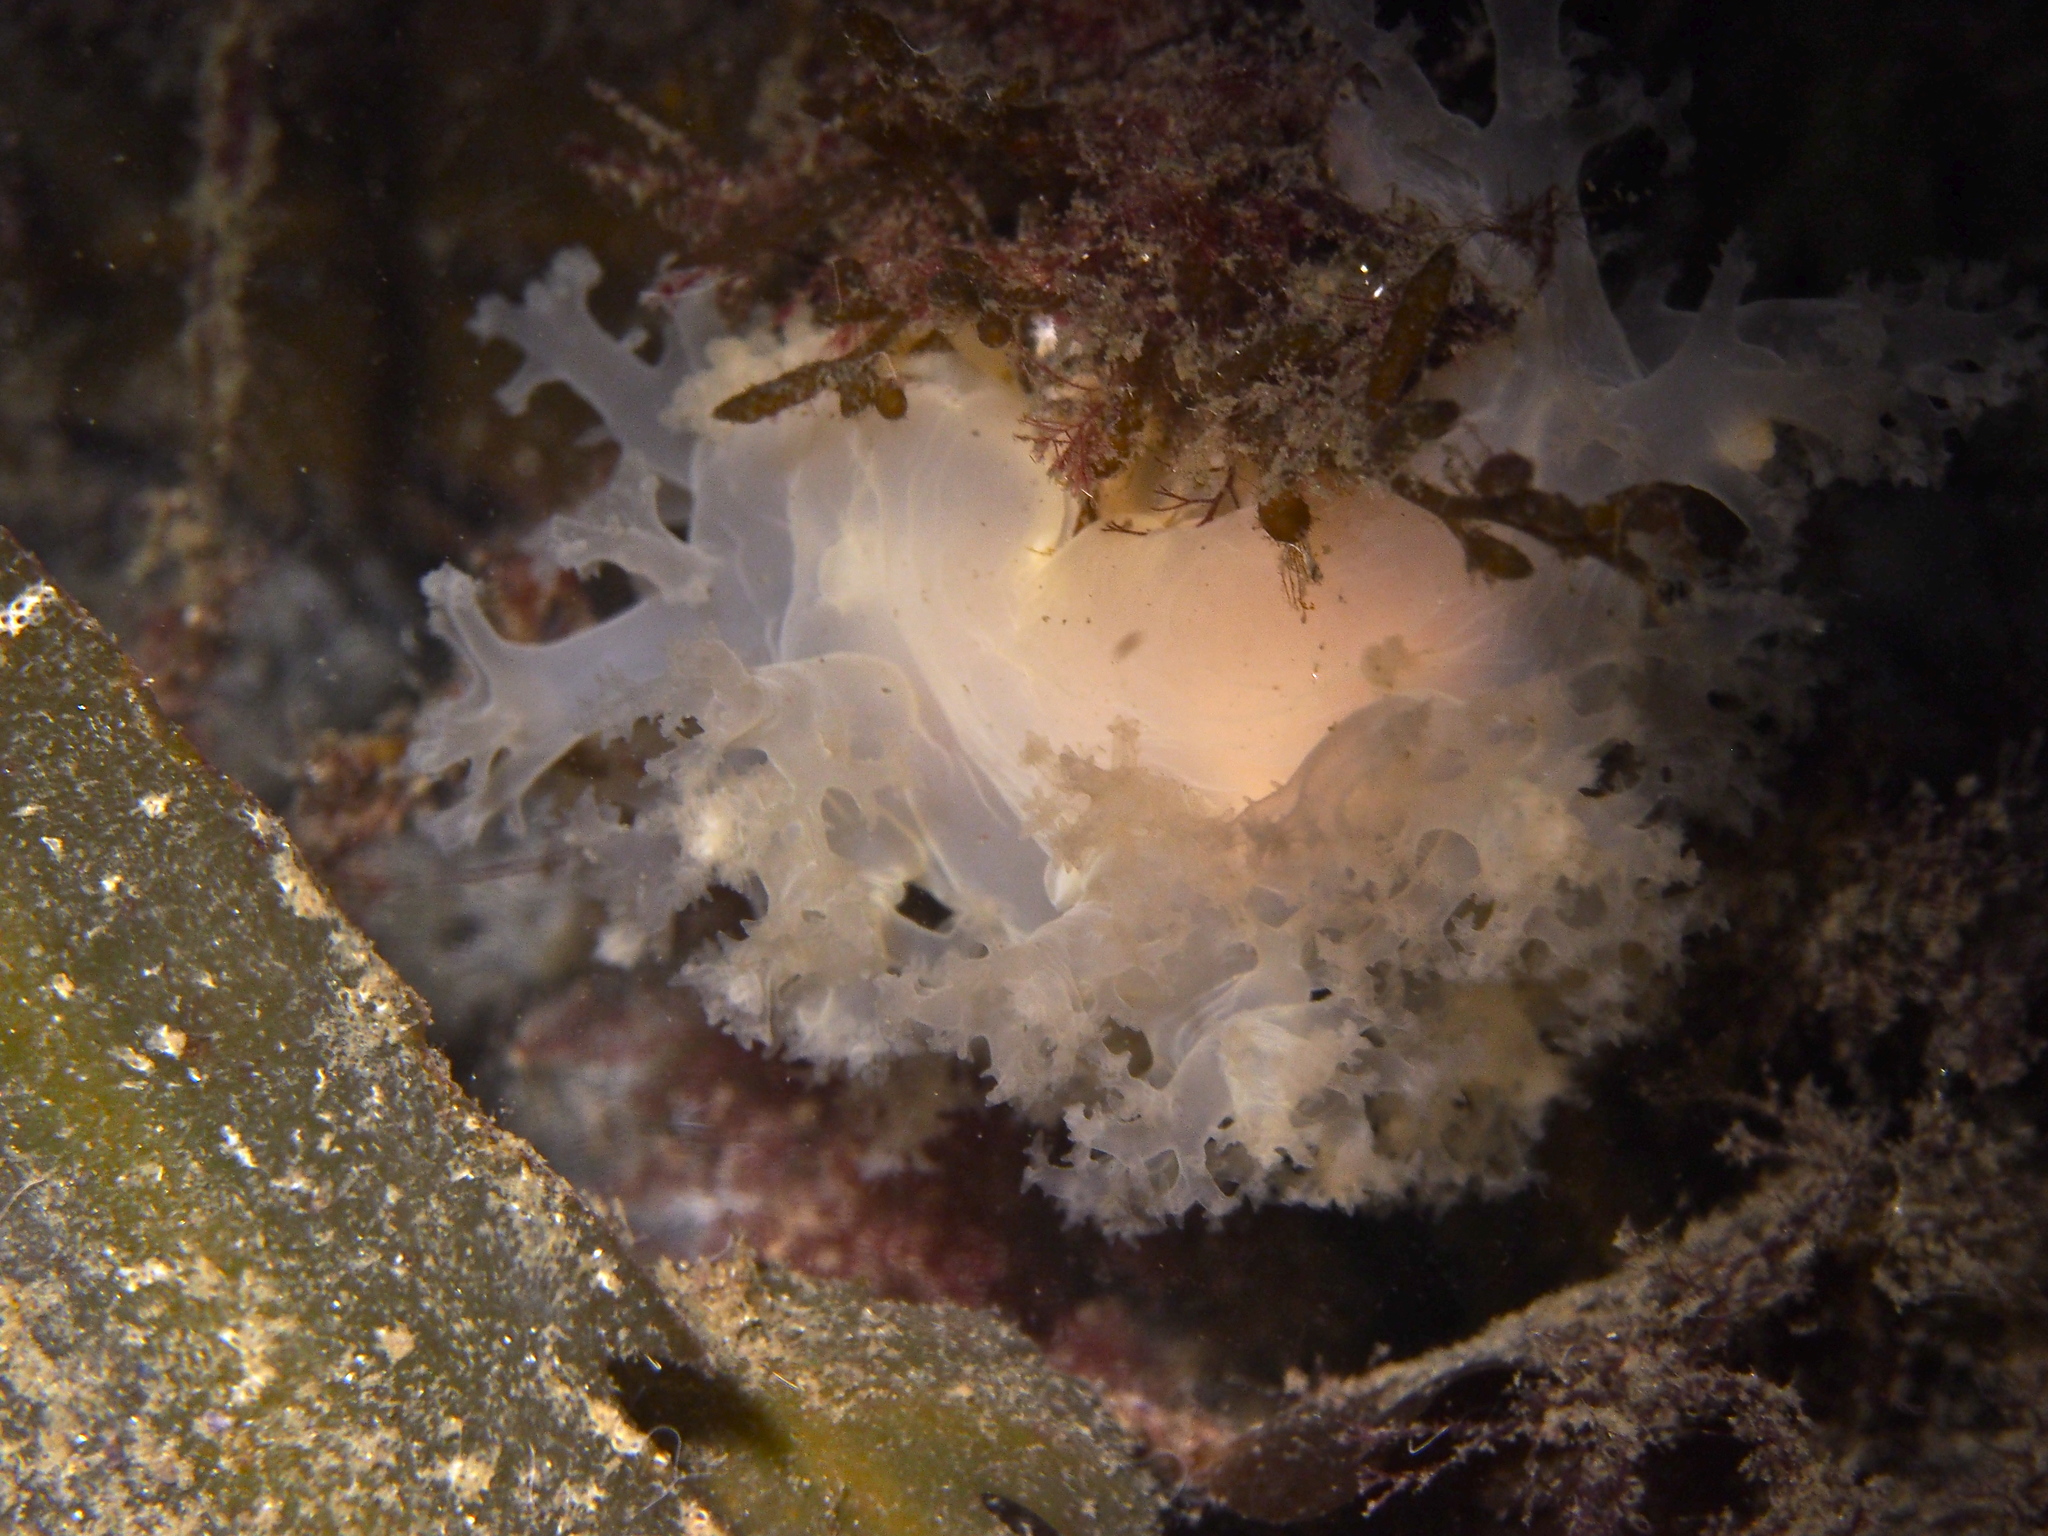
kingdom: Animalia
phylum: Mollusca
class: Gastropoda
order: Nudibranchia
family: Dendronotidae
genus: Dendronotus
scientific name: Dendronotus lacteus
